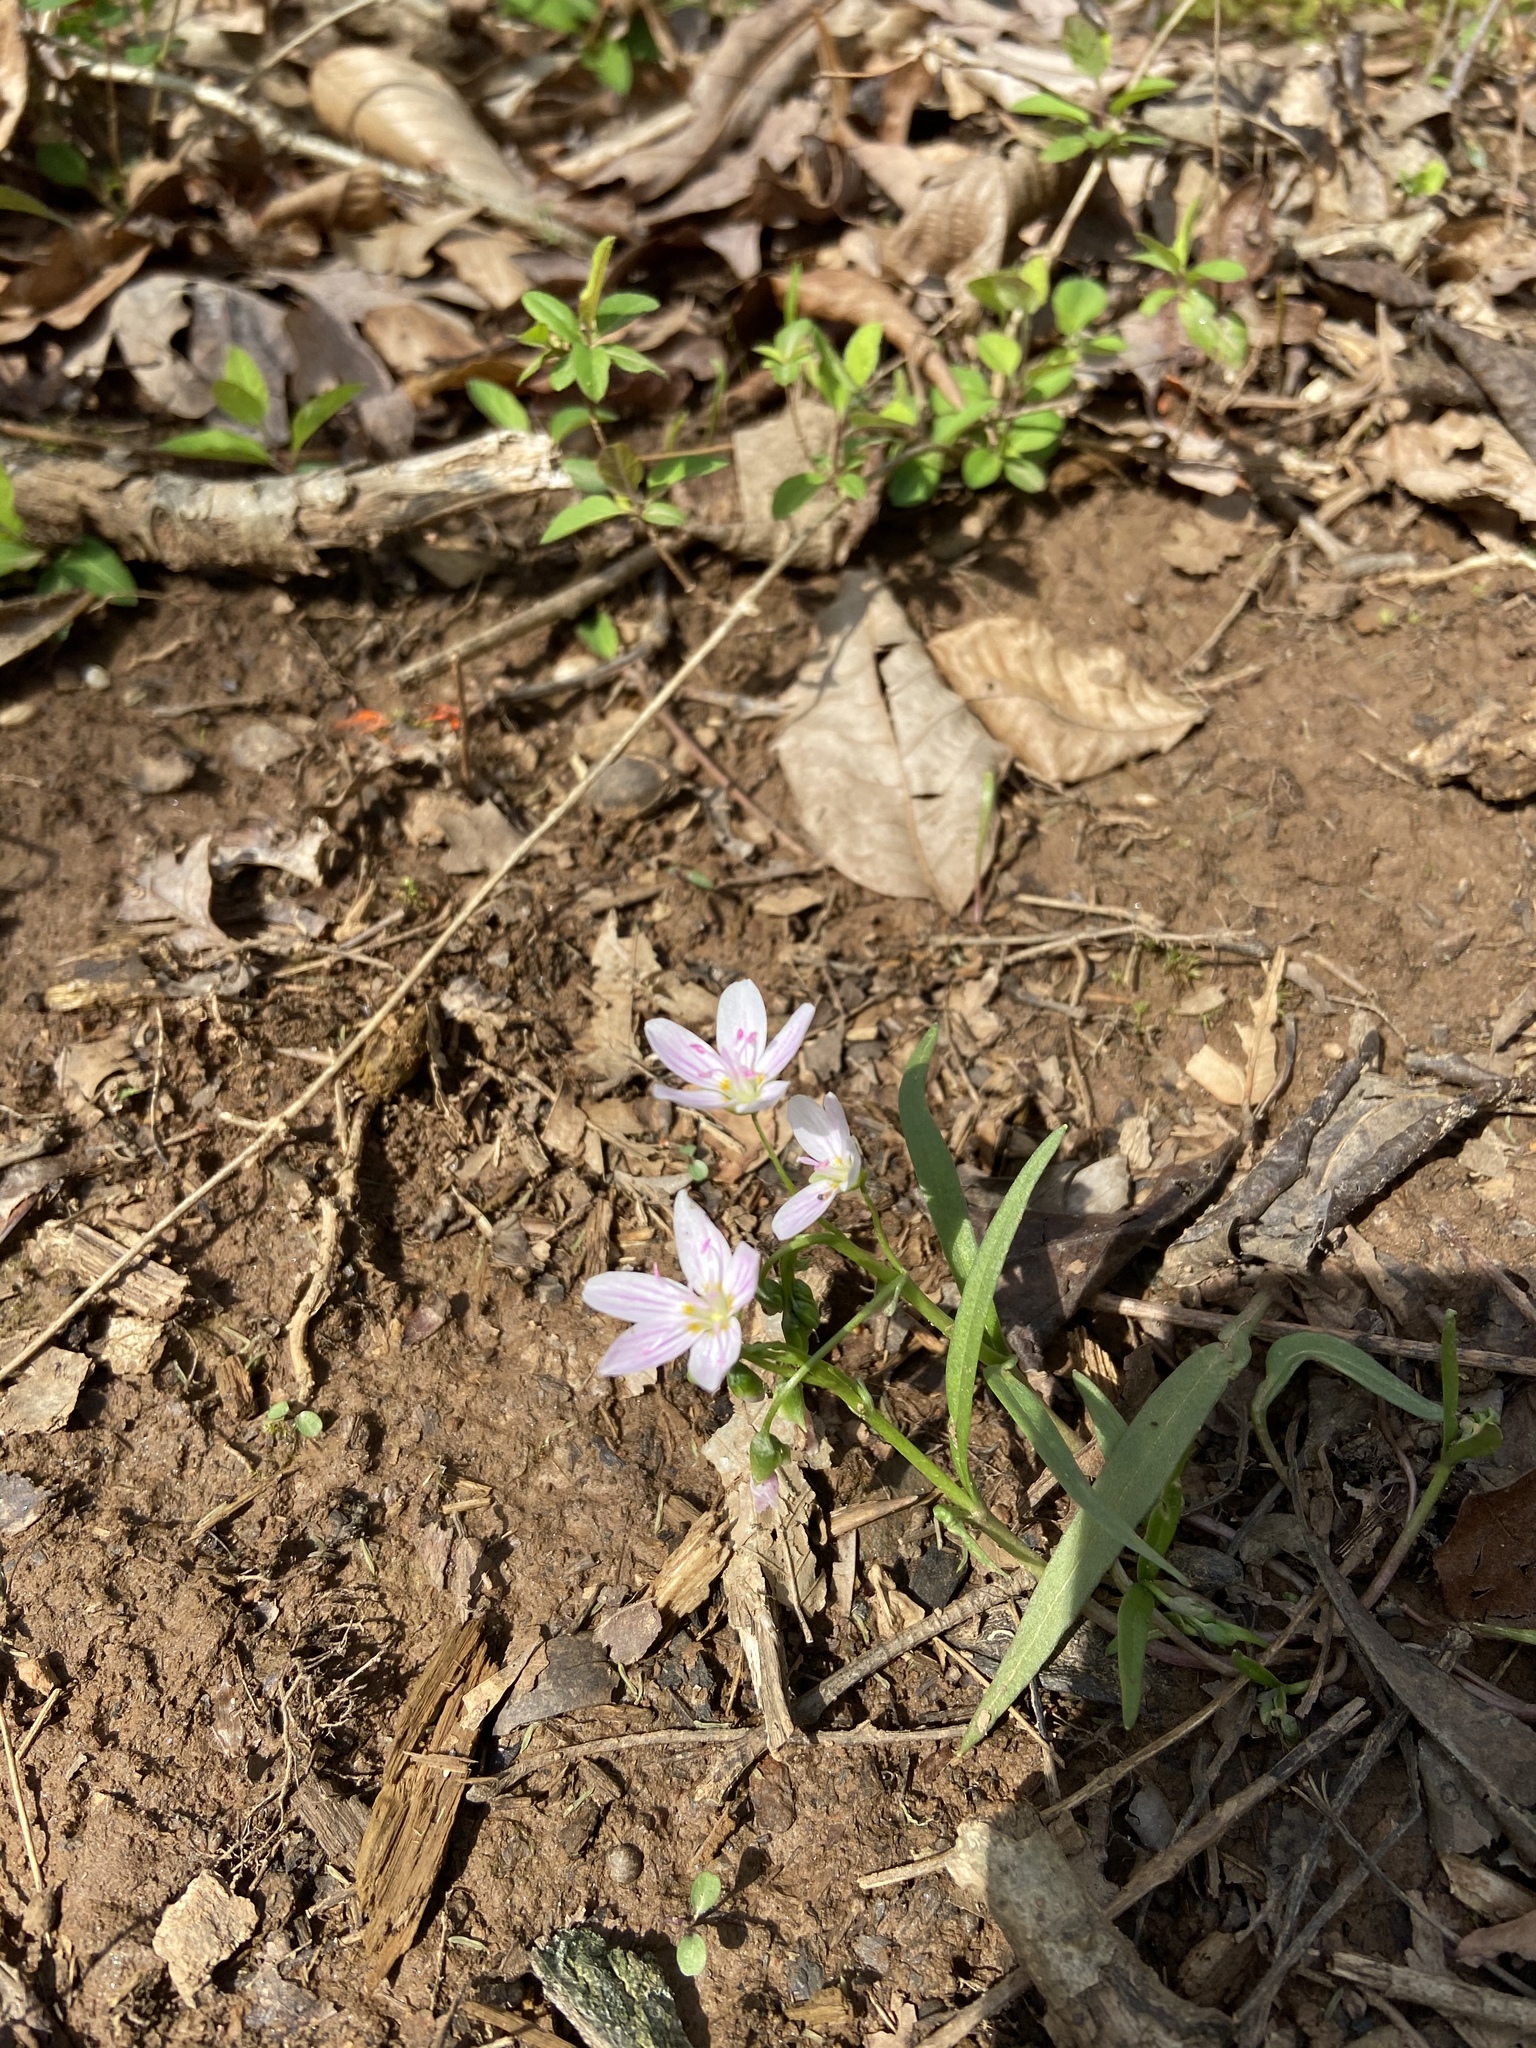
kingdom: Plantae
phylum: Tracheophyta
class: Magnoliopsida
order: Caryophyllales
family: Montiaceae
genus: Claytonia
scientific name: Claytonia virginica
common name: Virginia springbeauty
